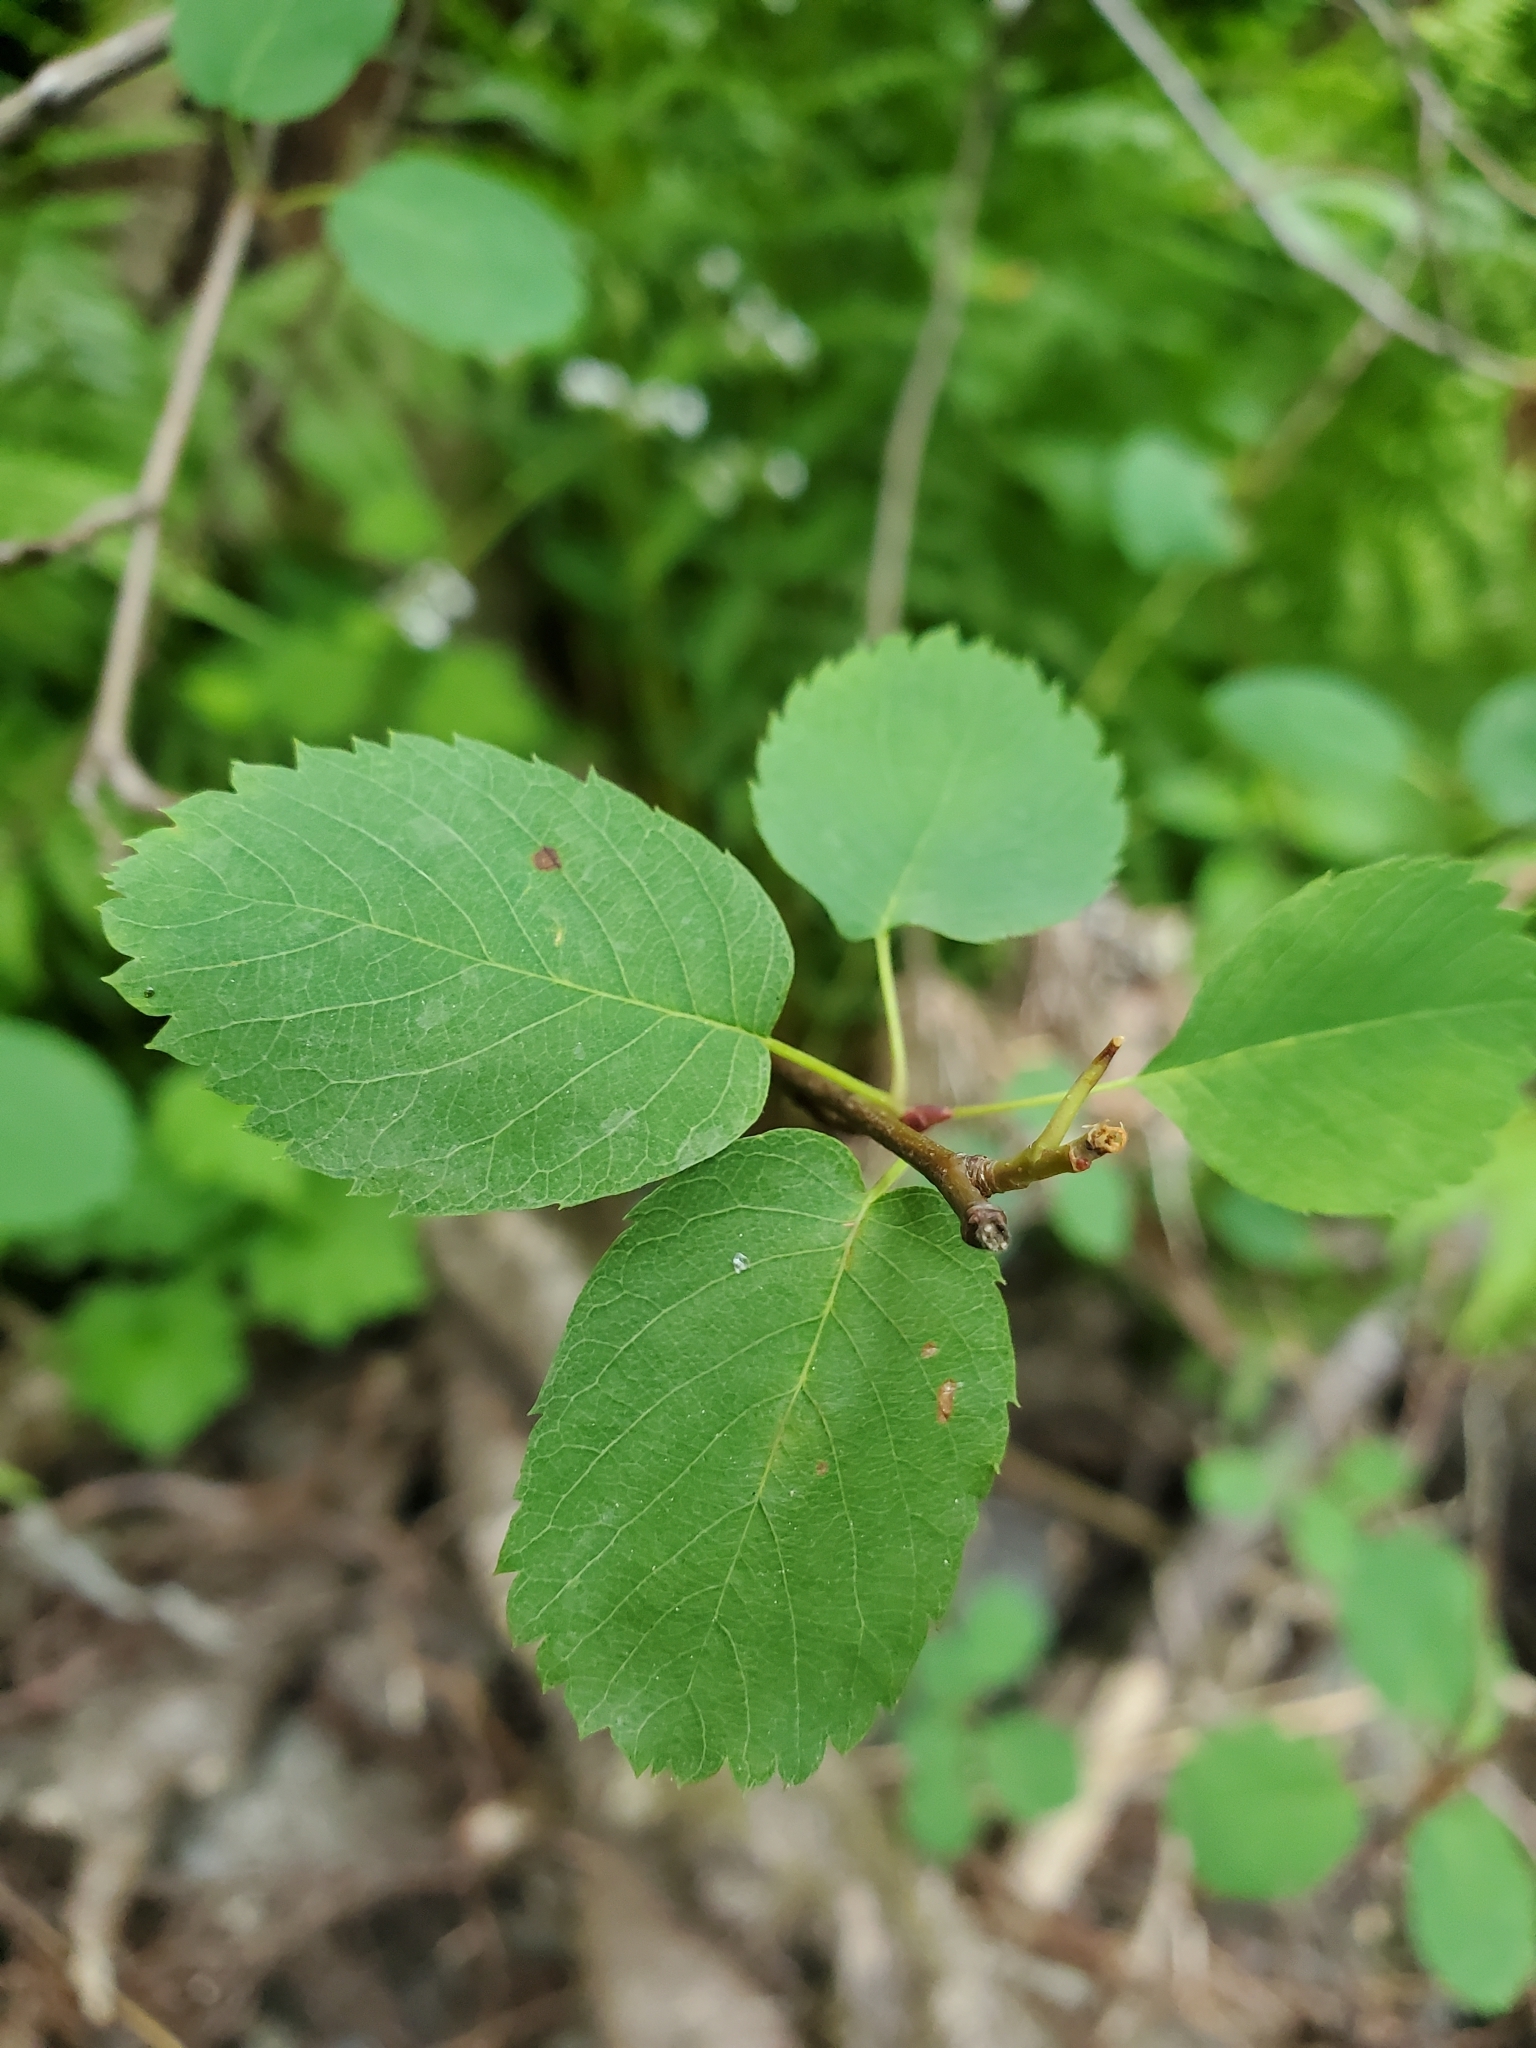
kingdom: Plantae
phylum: Tracheophyta
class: Magnoliopsida
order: Rosales
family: Rosaceae
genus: Amelanchier
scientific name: Amelanchier alnifolia
